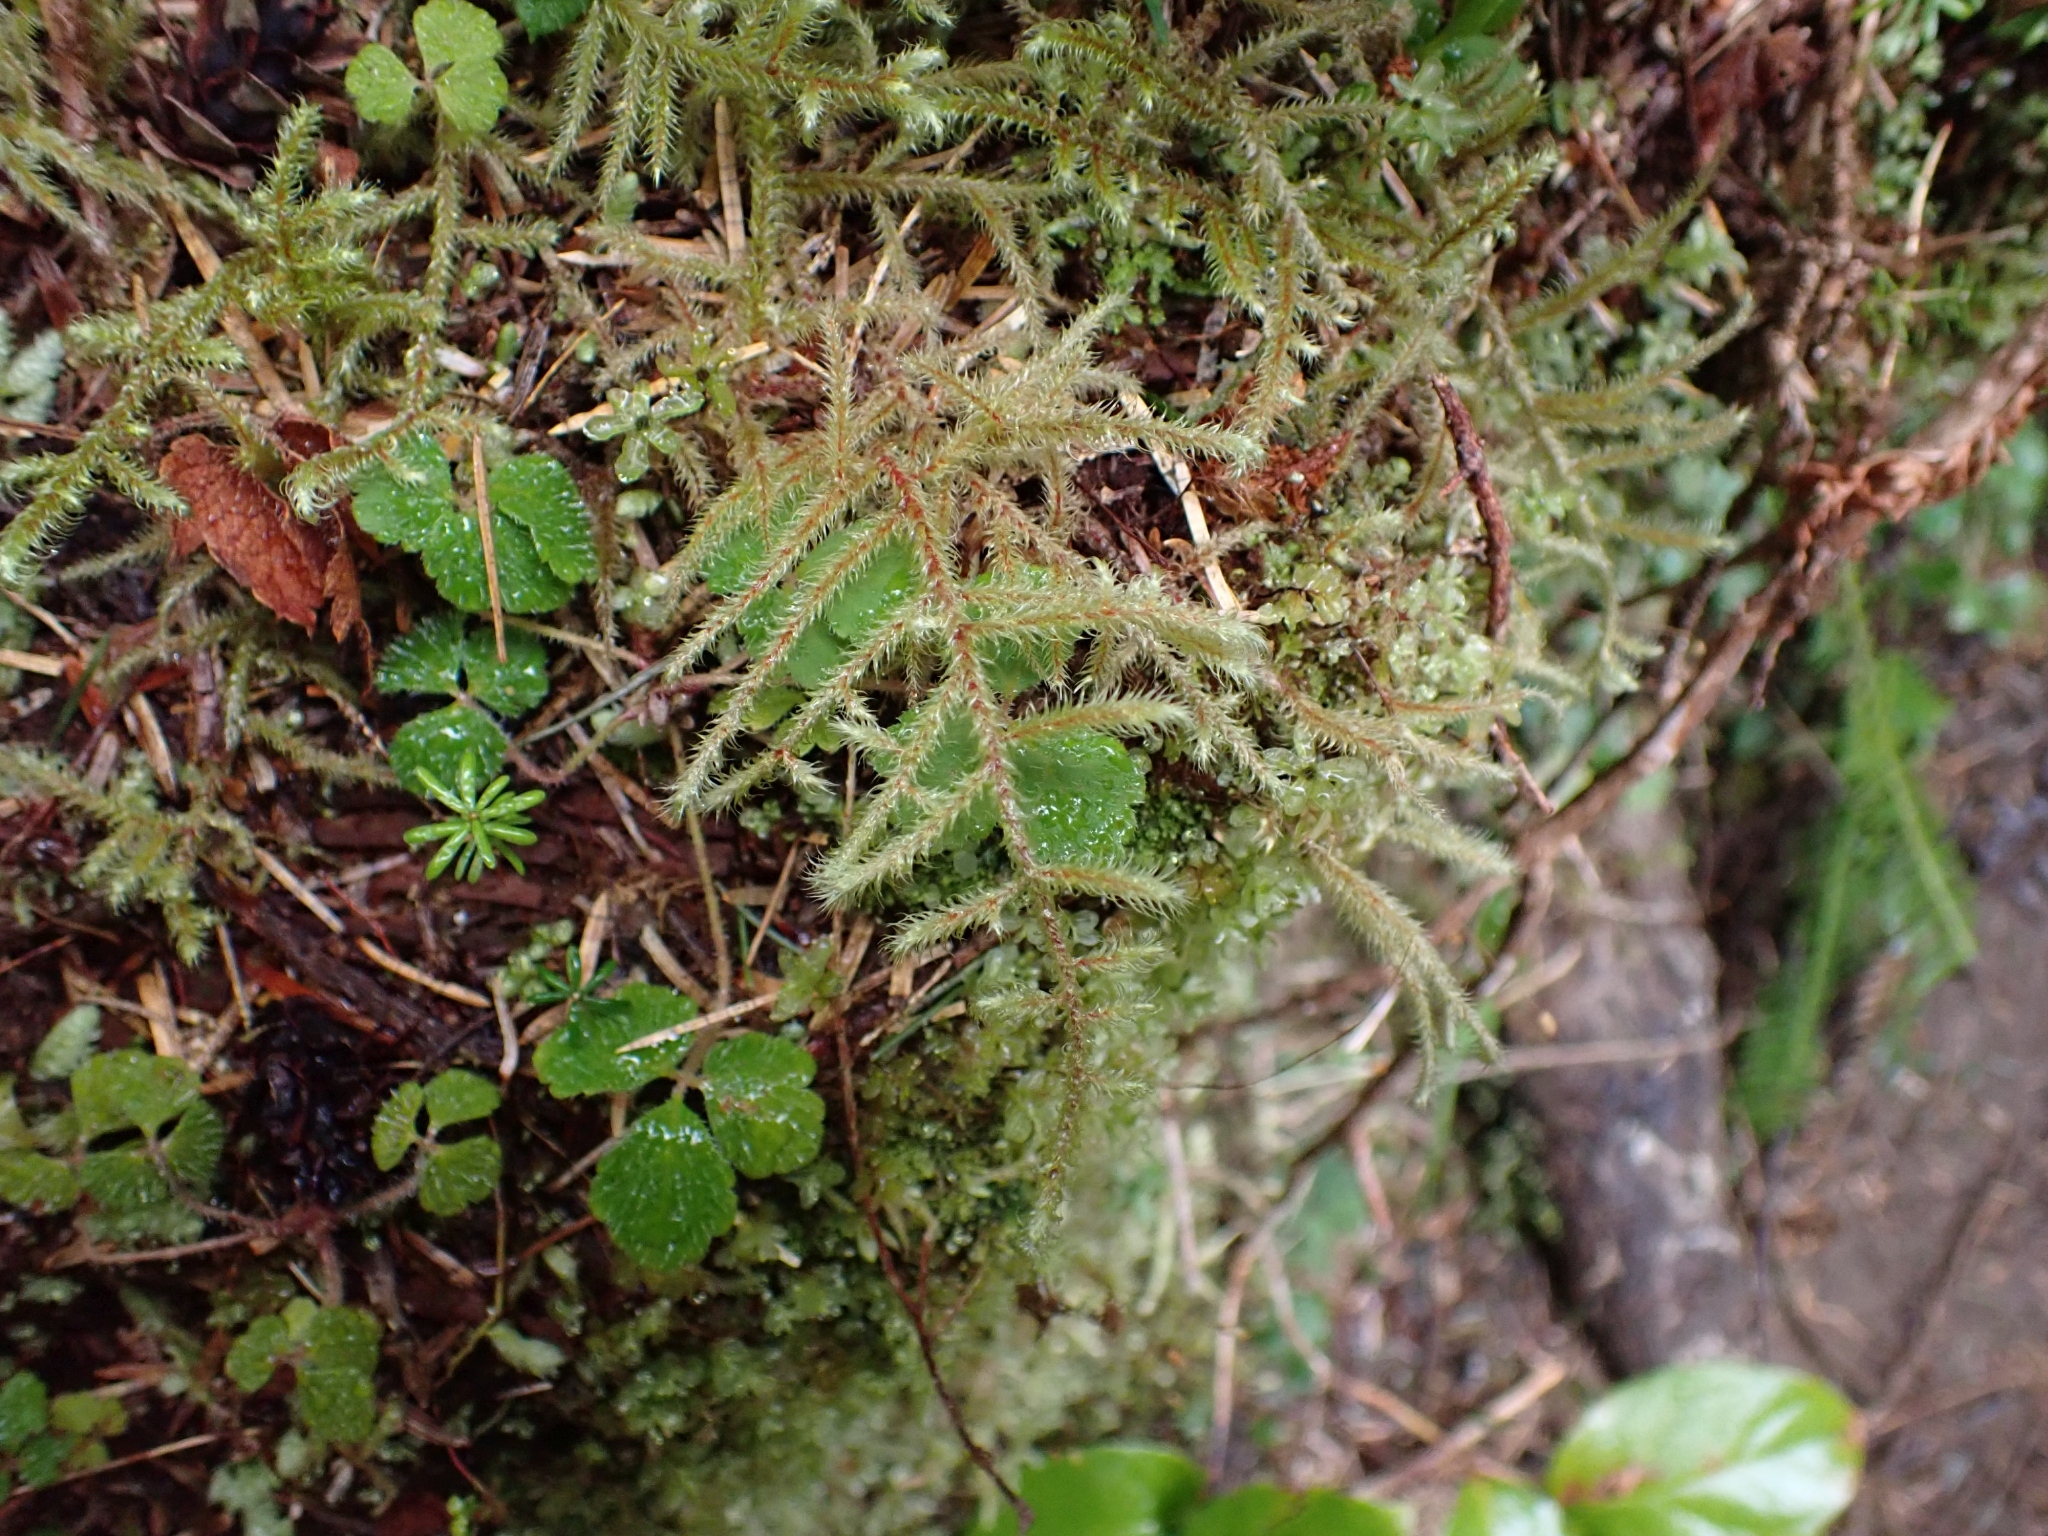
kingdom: Plantae
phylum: Bryophyta
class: Bryopsida
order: Hypnales
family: Hylocomiaceae
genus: Rhytidiadelphus
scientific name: Rhytidiadelphus loreus
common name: Lanky moss
